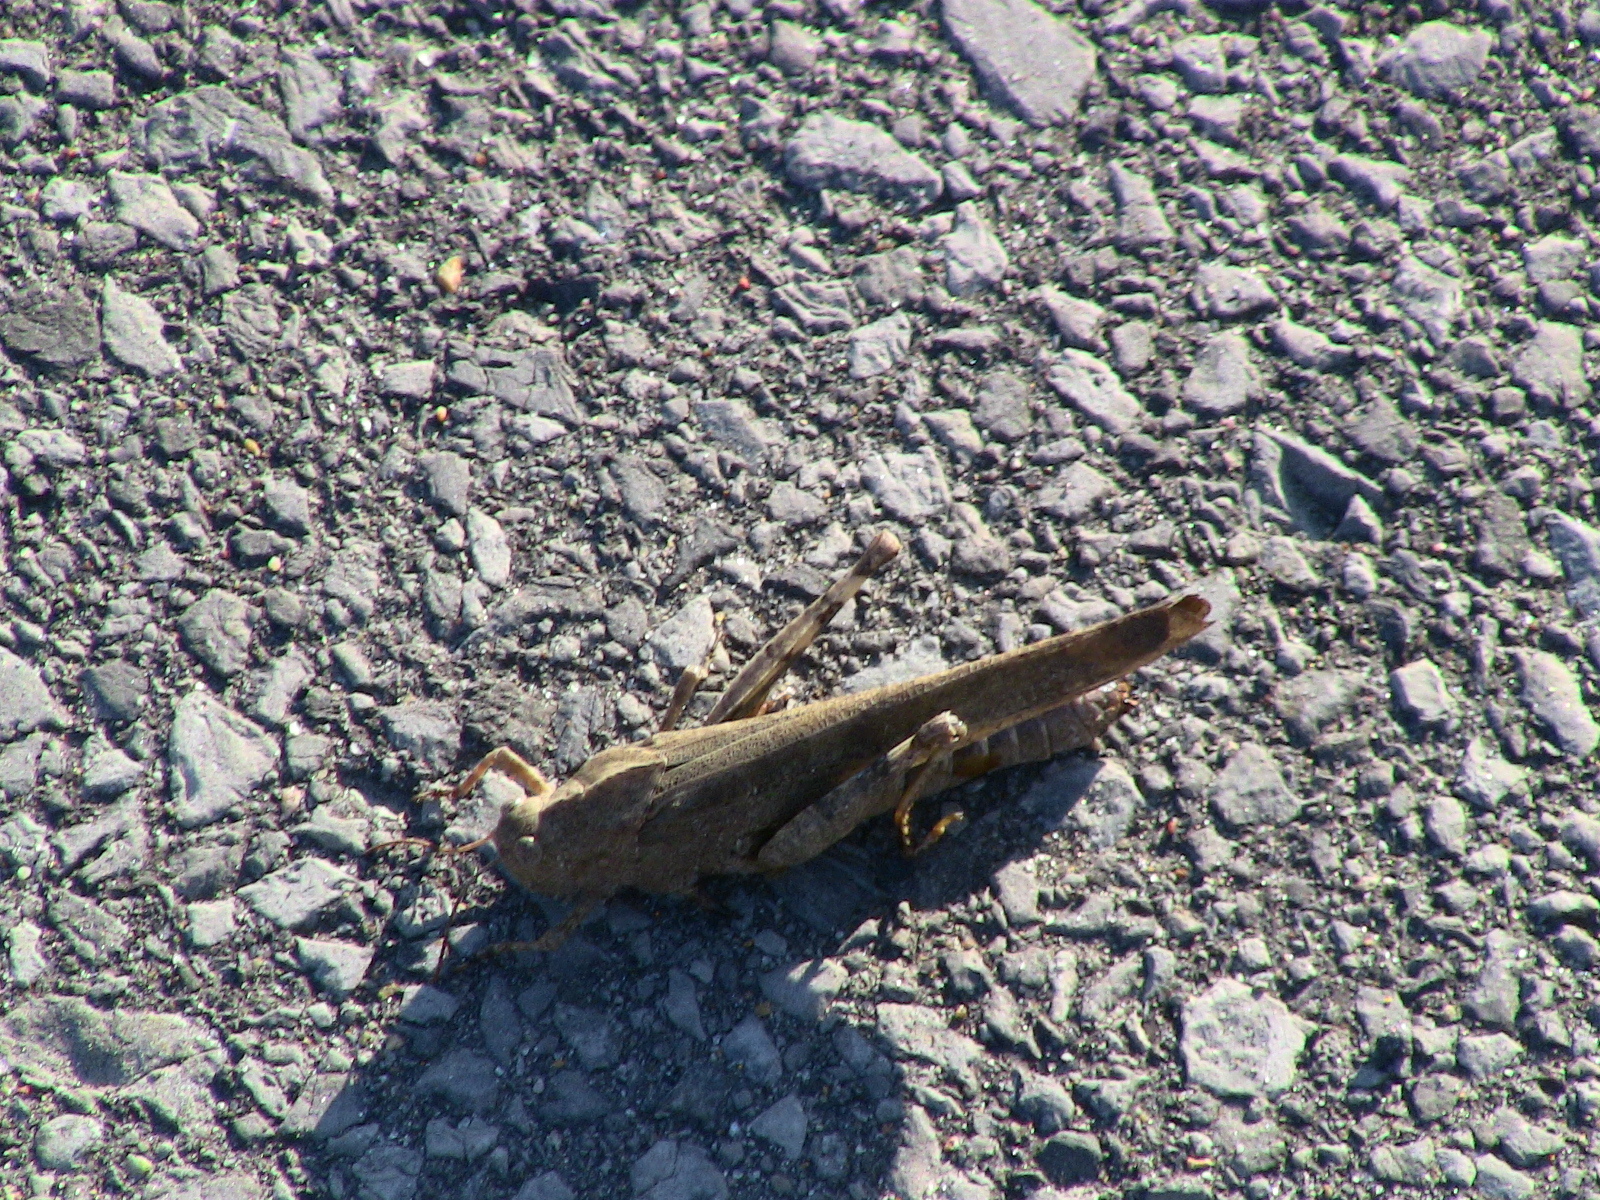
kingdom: Animalia
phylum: Arthropoda
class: Insecta
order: Orthoptera
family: Acrididae
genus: Dissosteira
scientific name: Dissosteira carolina
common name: Carolina grasshopper
